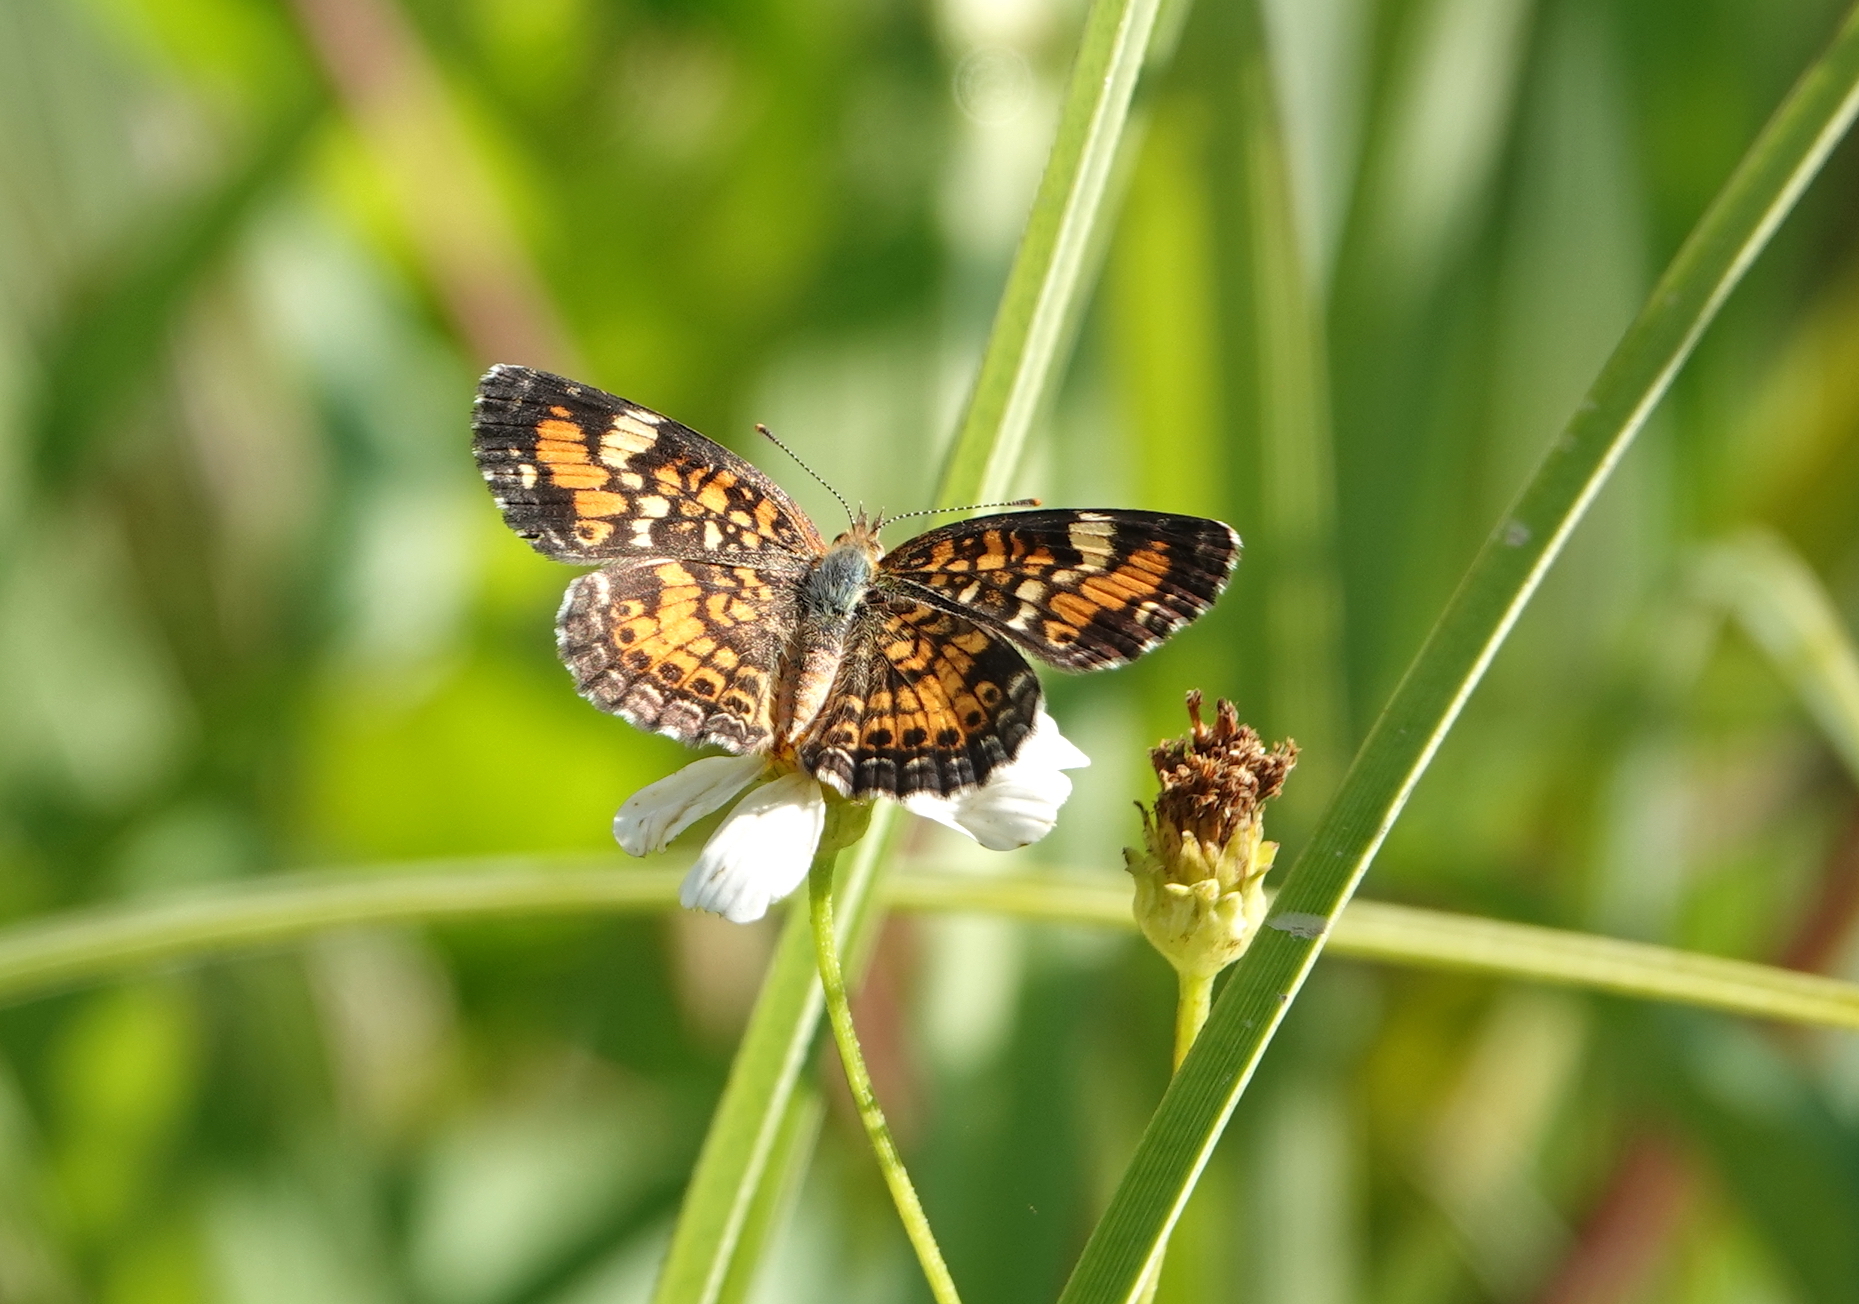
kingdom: Animalia
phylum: Arthropoda
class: Insecta
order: Lepidoptera
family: Nymphalidae
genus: Phyciodes
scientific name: Phyciodes phaon
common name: Phaon crescent
